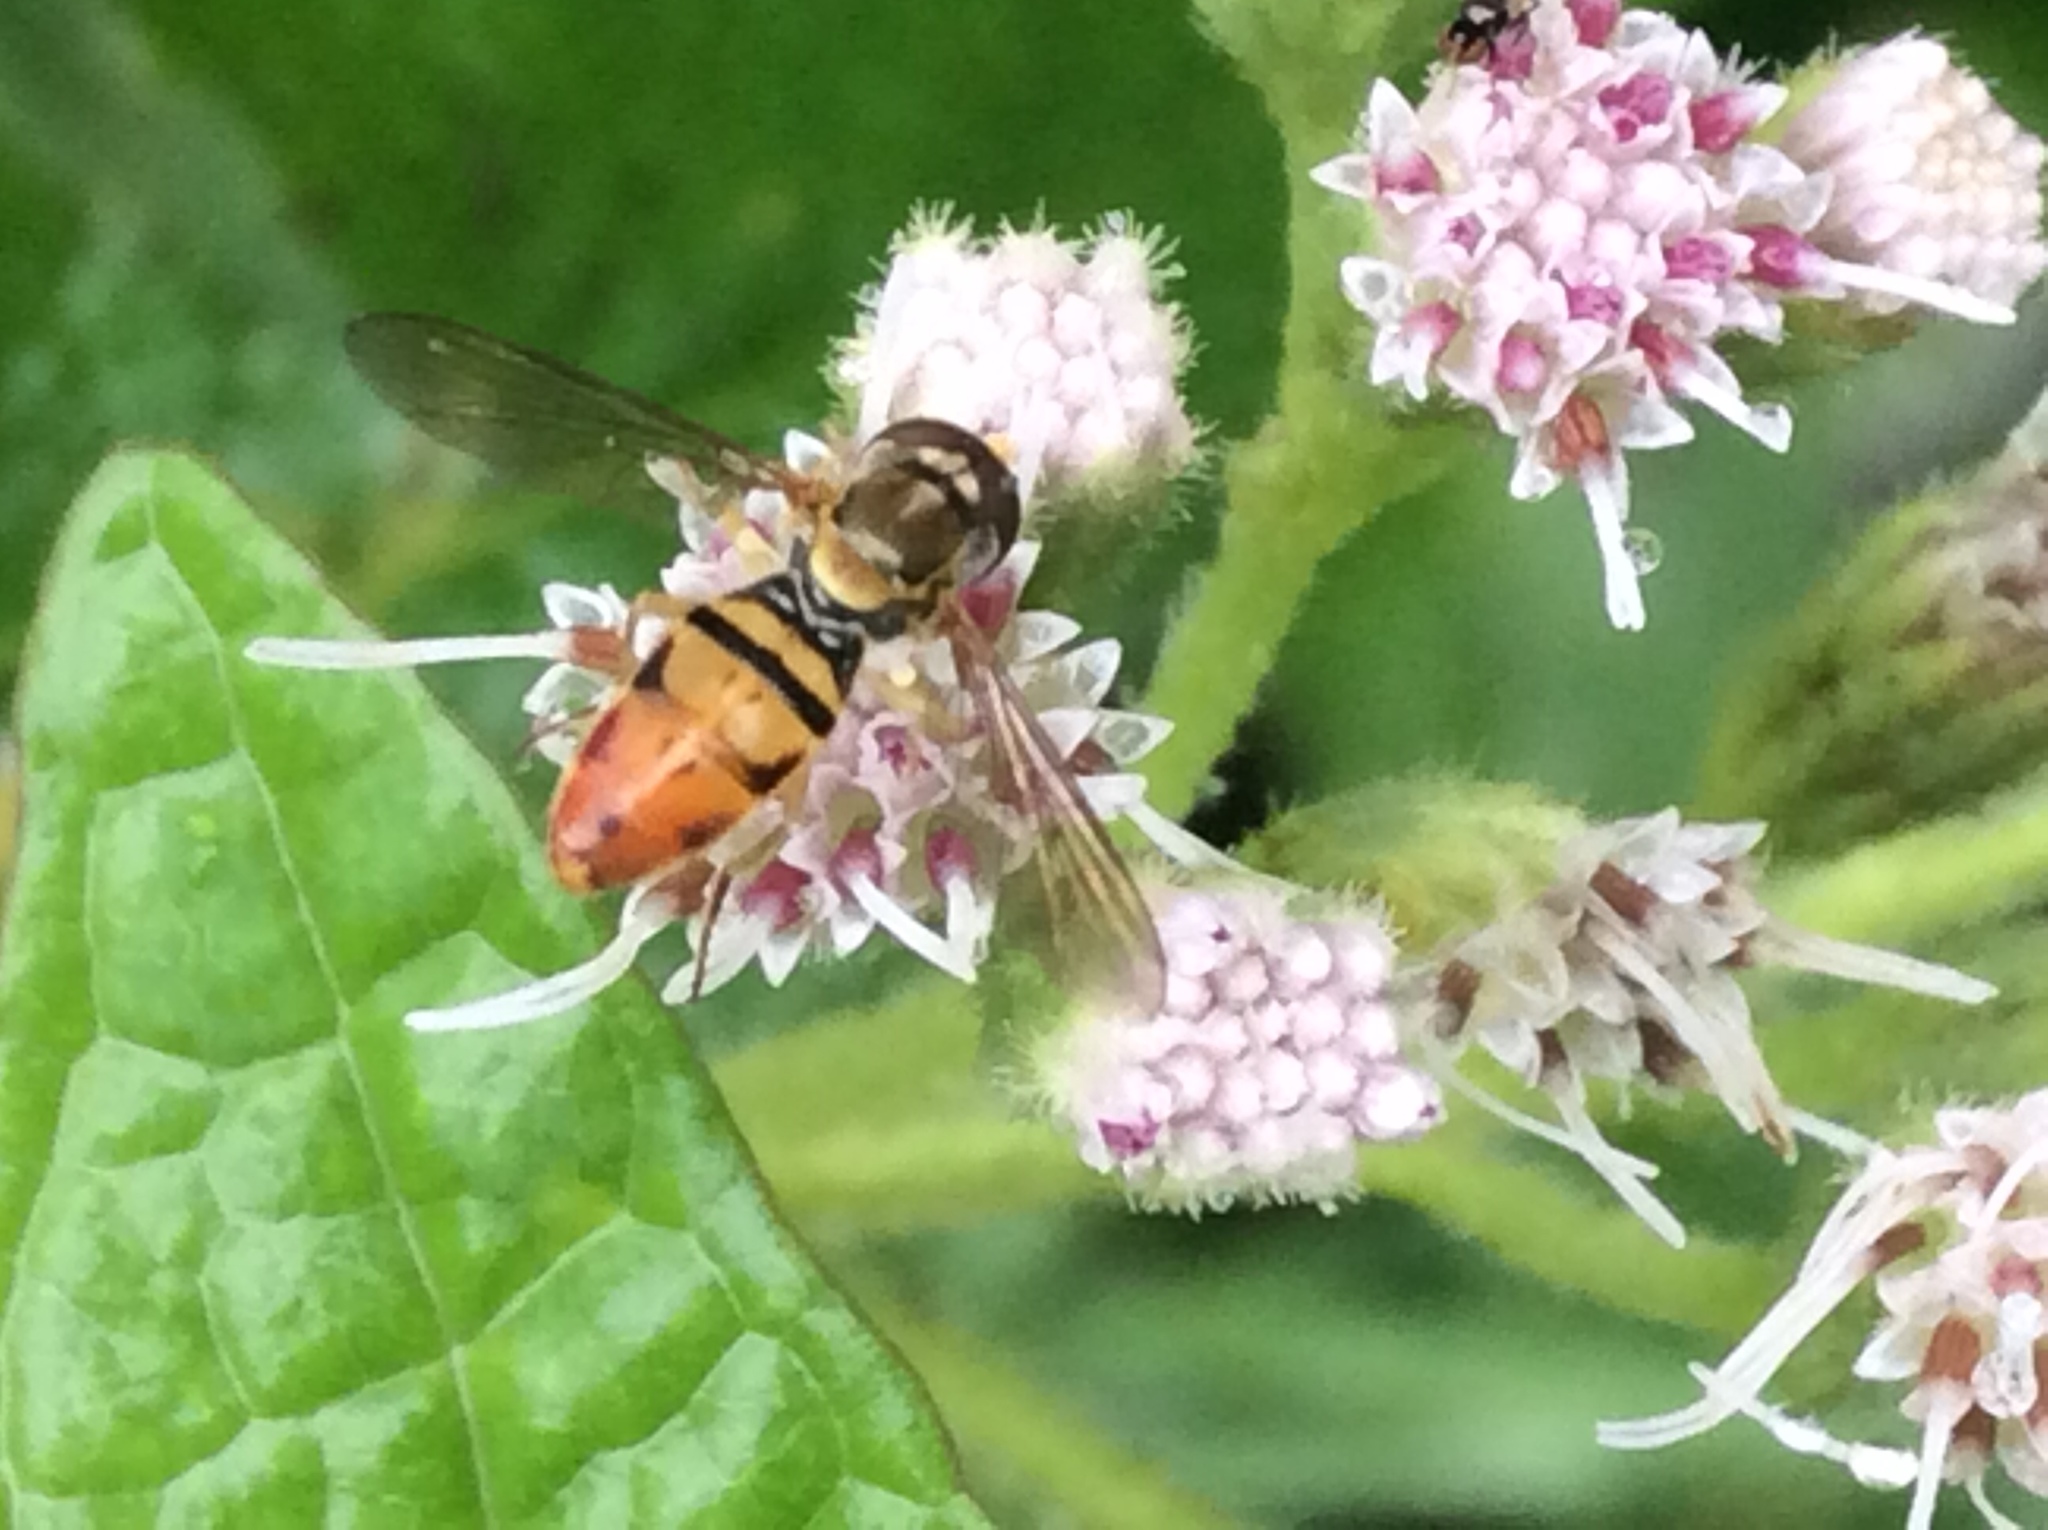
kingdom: Animalia
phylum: Arthropoda
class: Insecta
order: Diptera
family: Syrphidae
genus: Toxomerus
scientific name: Toxomerus marginatus
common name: Syrphid fly
